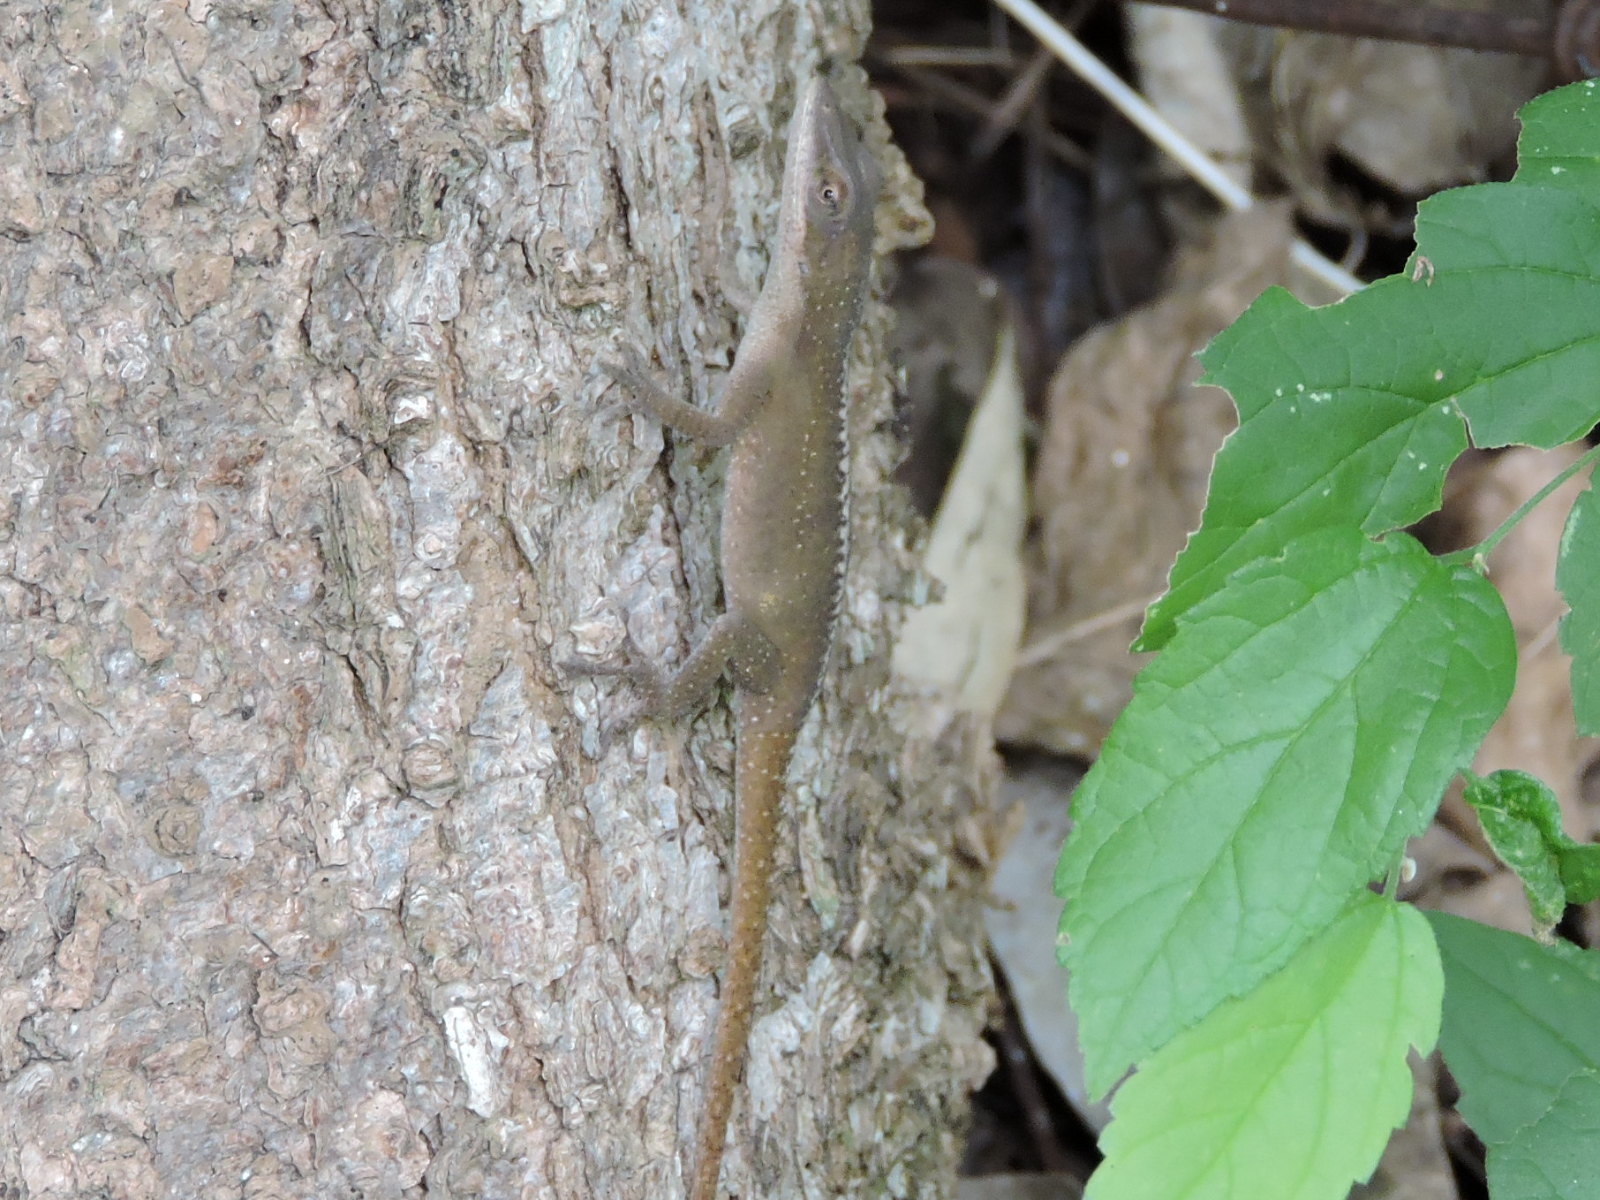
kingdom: Animalia
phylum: Chordata
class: Squamata
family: Dactyloidae
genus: Anolis
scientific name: Anolis carolinensis
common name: Green anole
